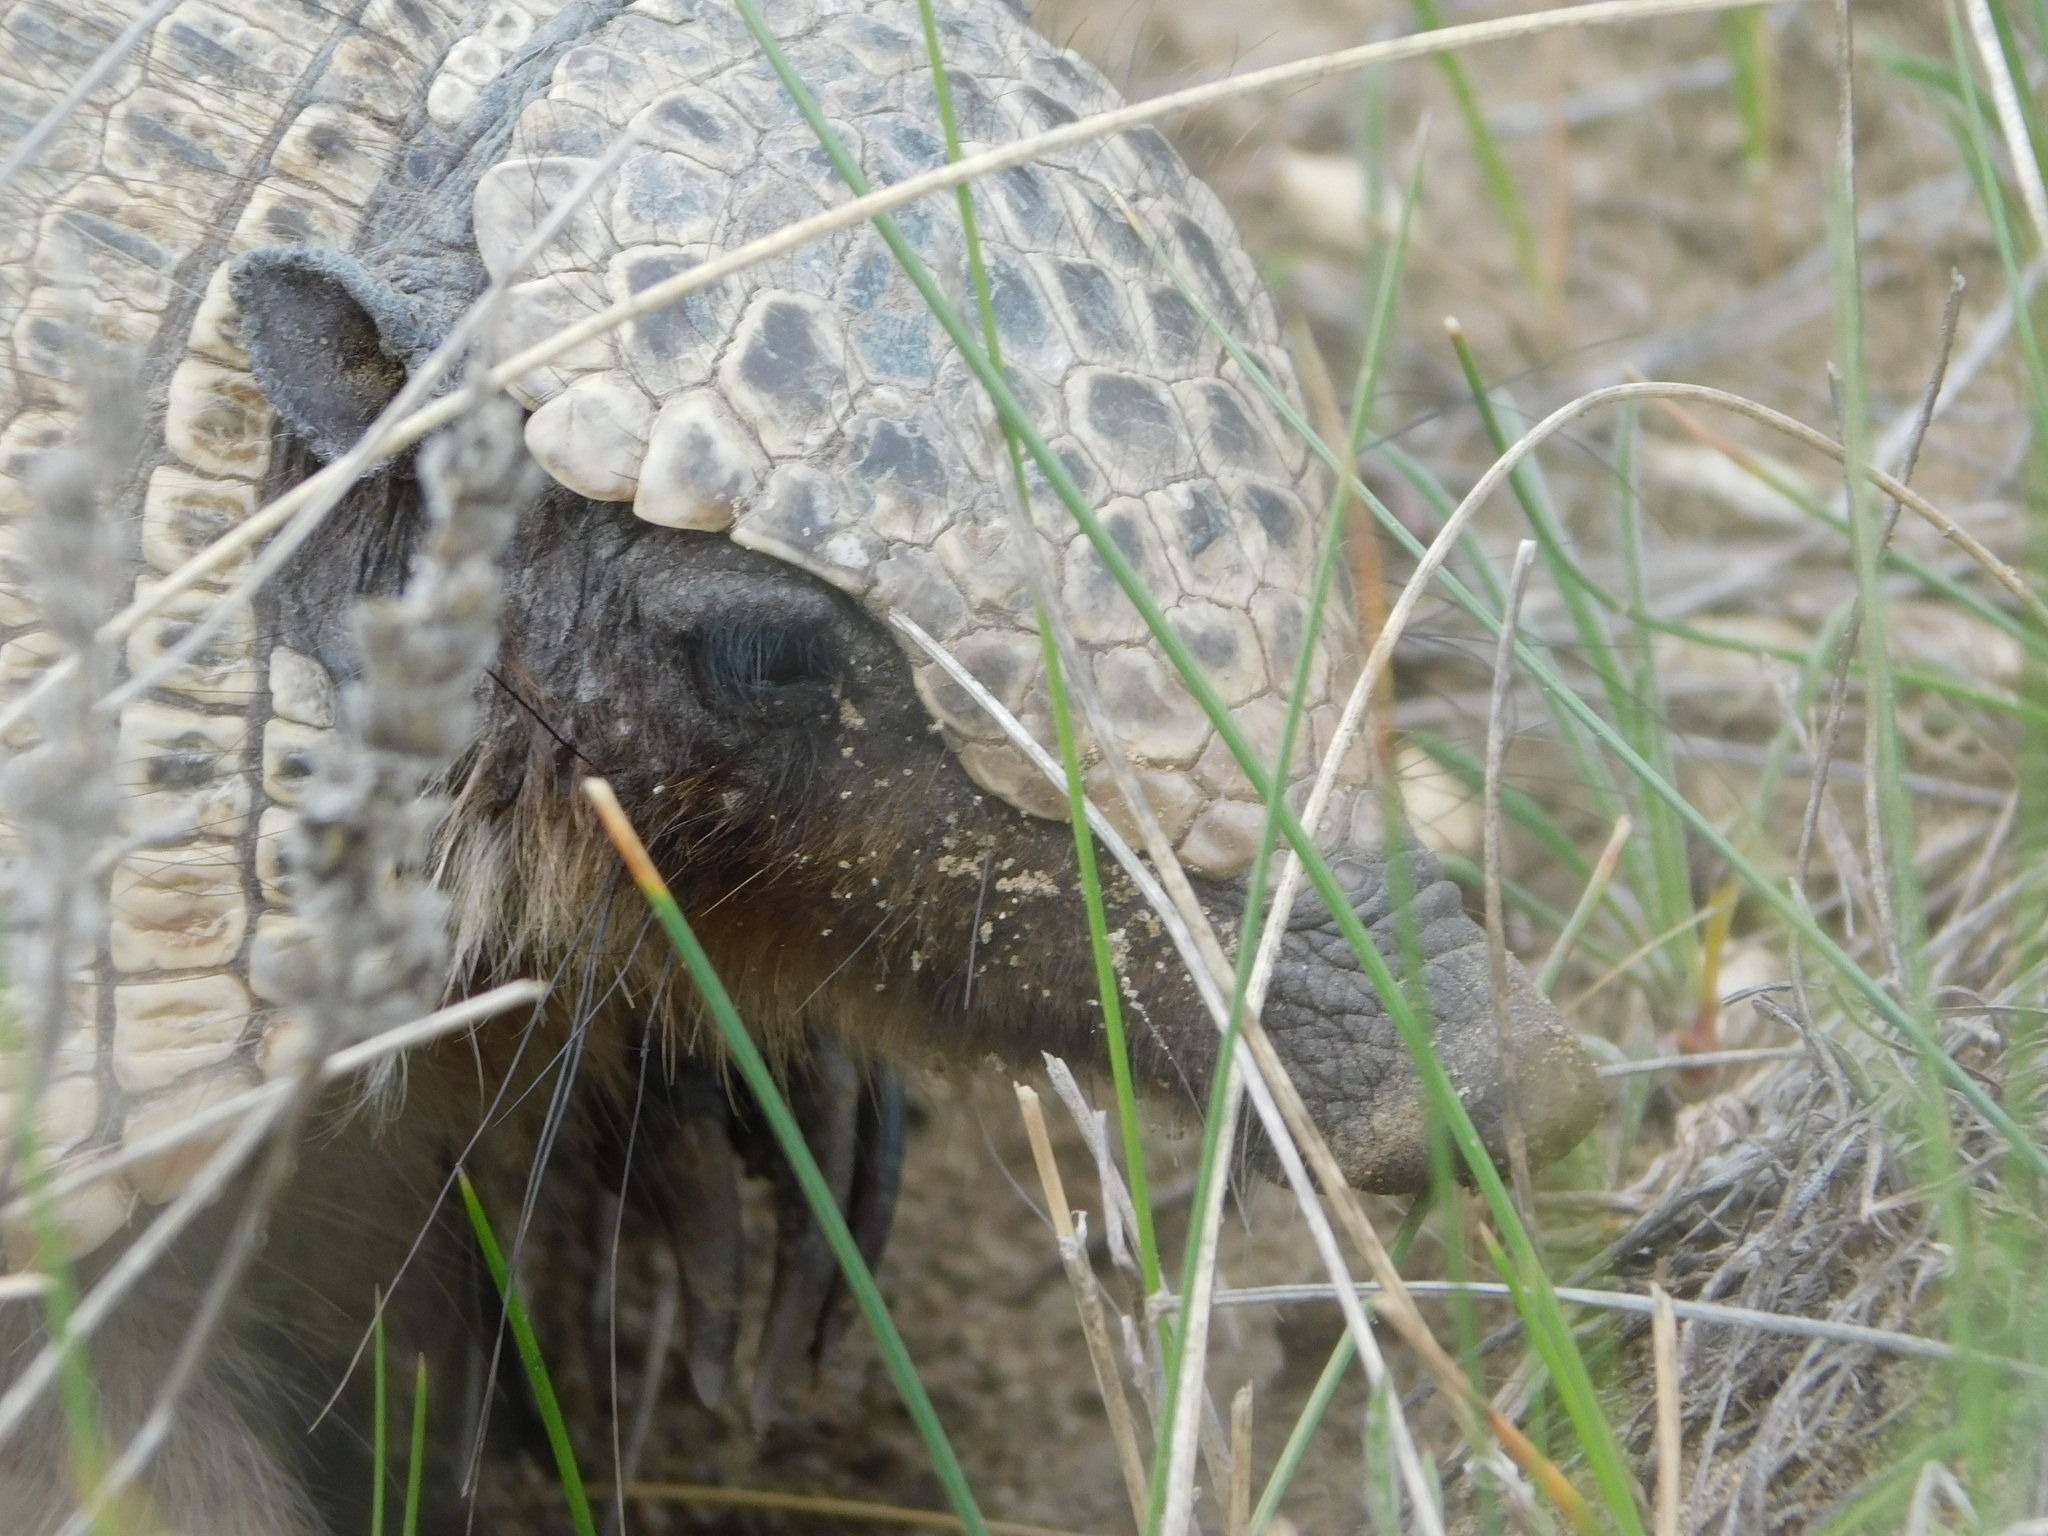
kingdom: Animalia
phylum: Chordata
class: Mammalia
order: Cingulata
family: Dasypodidae
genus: Zaedyus
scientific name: Zaedyus pichiy
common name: Pichi
